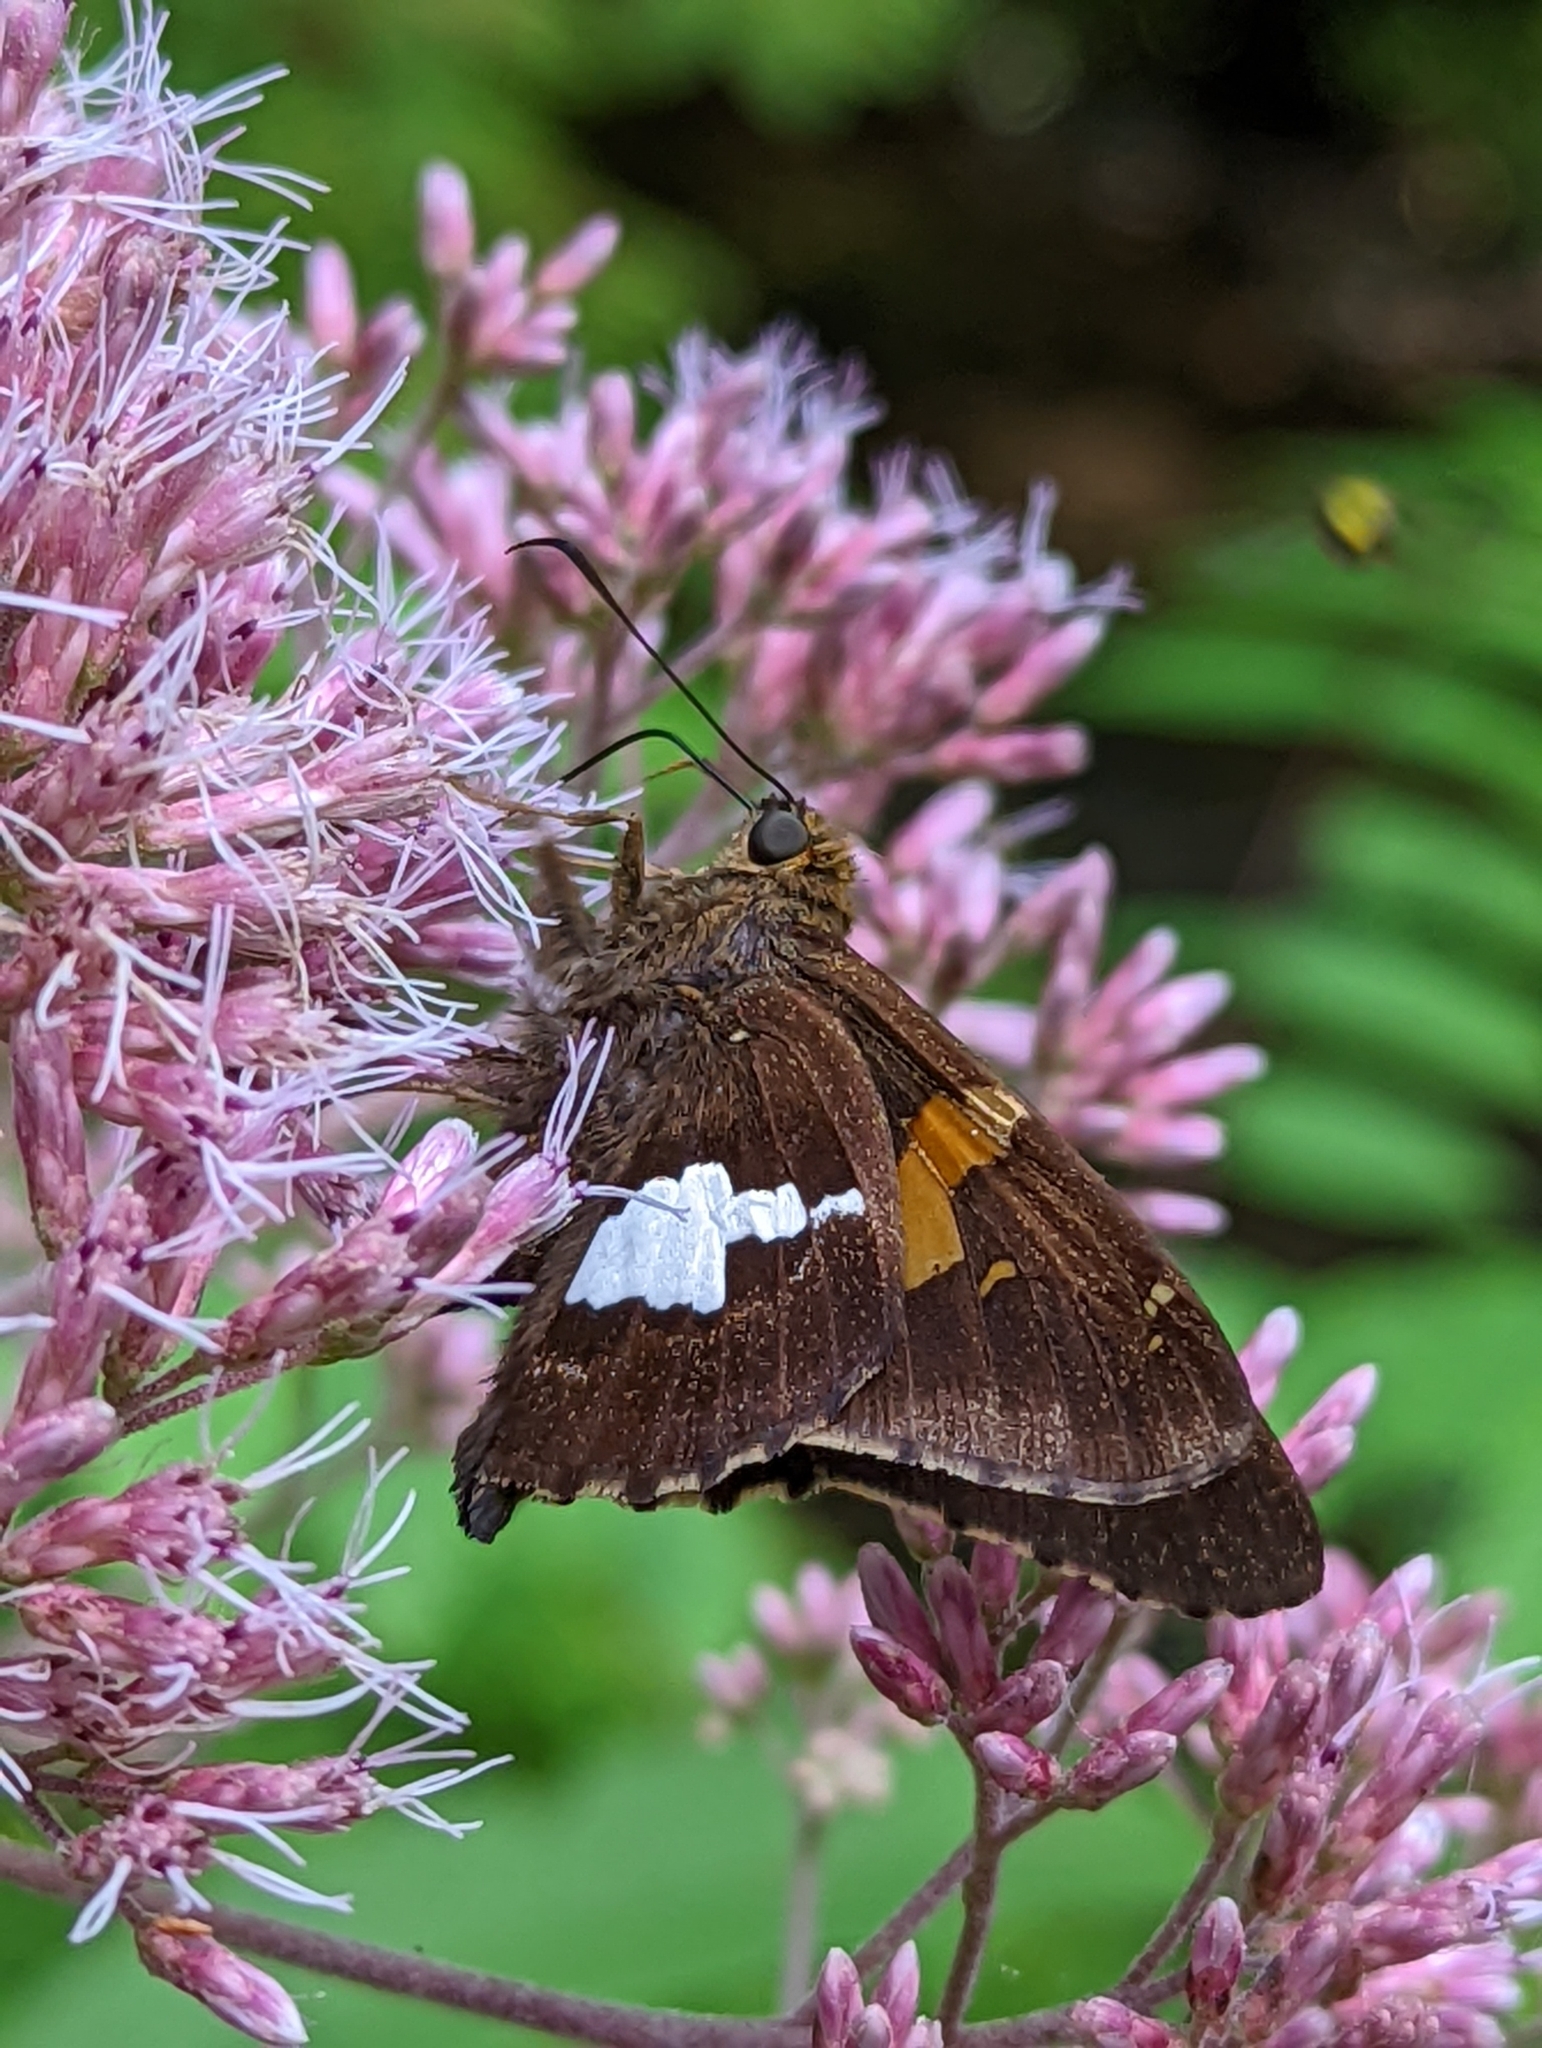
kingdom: Animalia
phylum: Arthropoda
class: Insecta
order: Lepidoptera
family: Hesperiidae
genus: Epargyreus
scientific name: Epargyreus clarus
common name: Silver-spotted skipper
